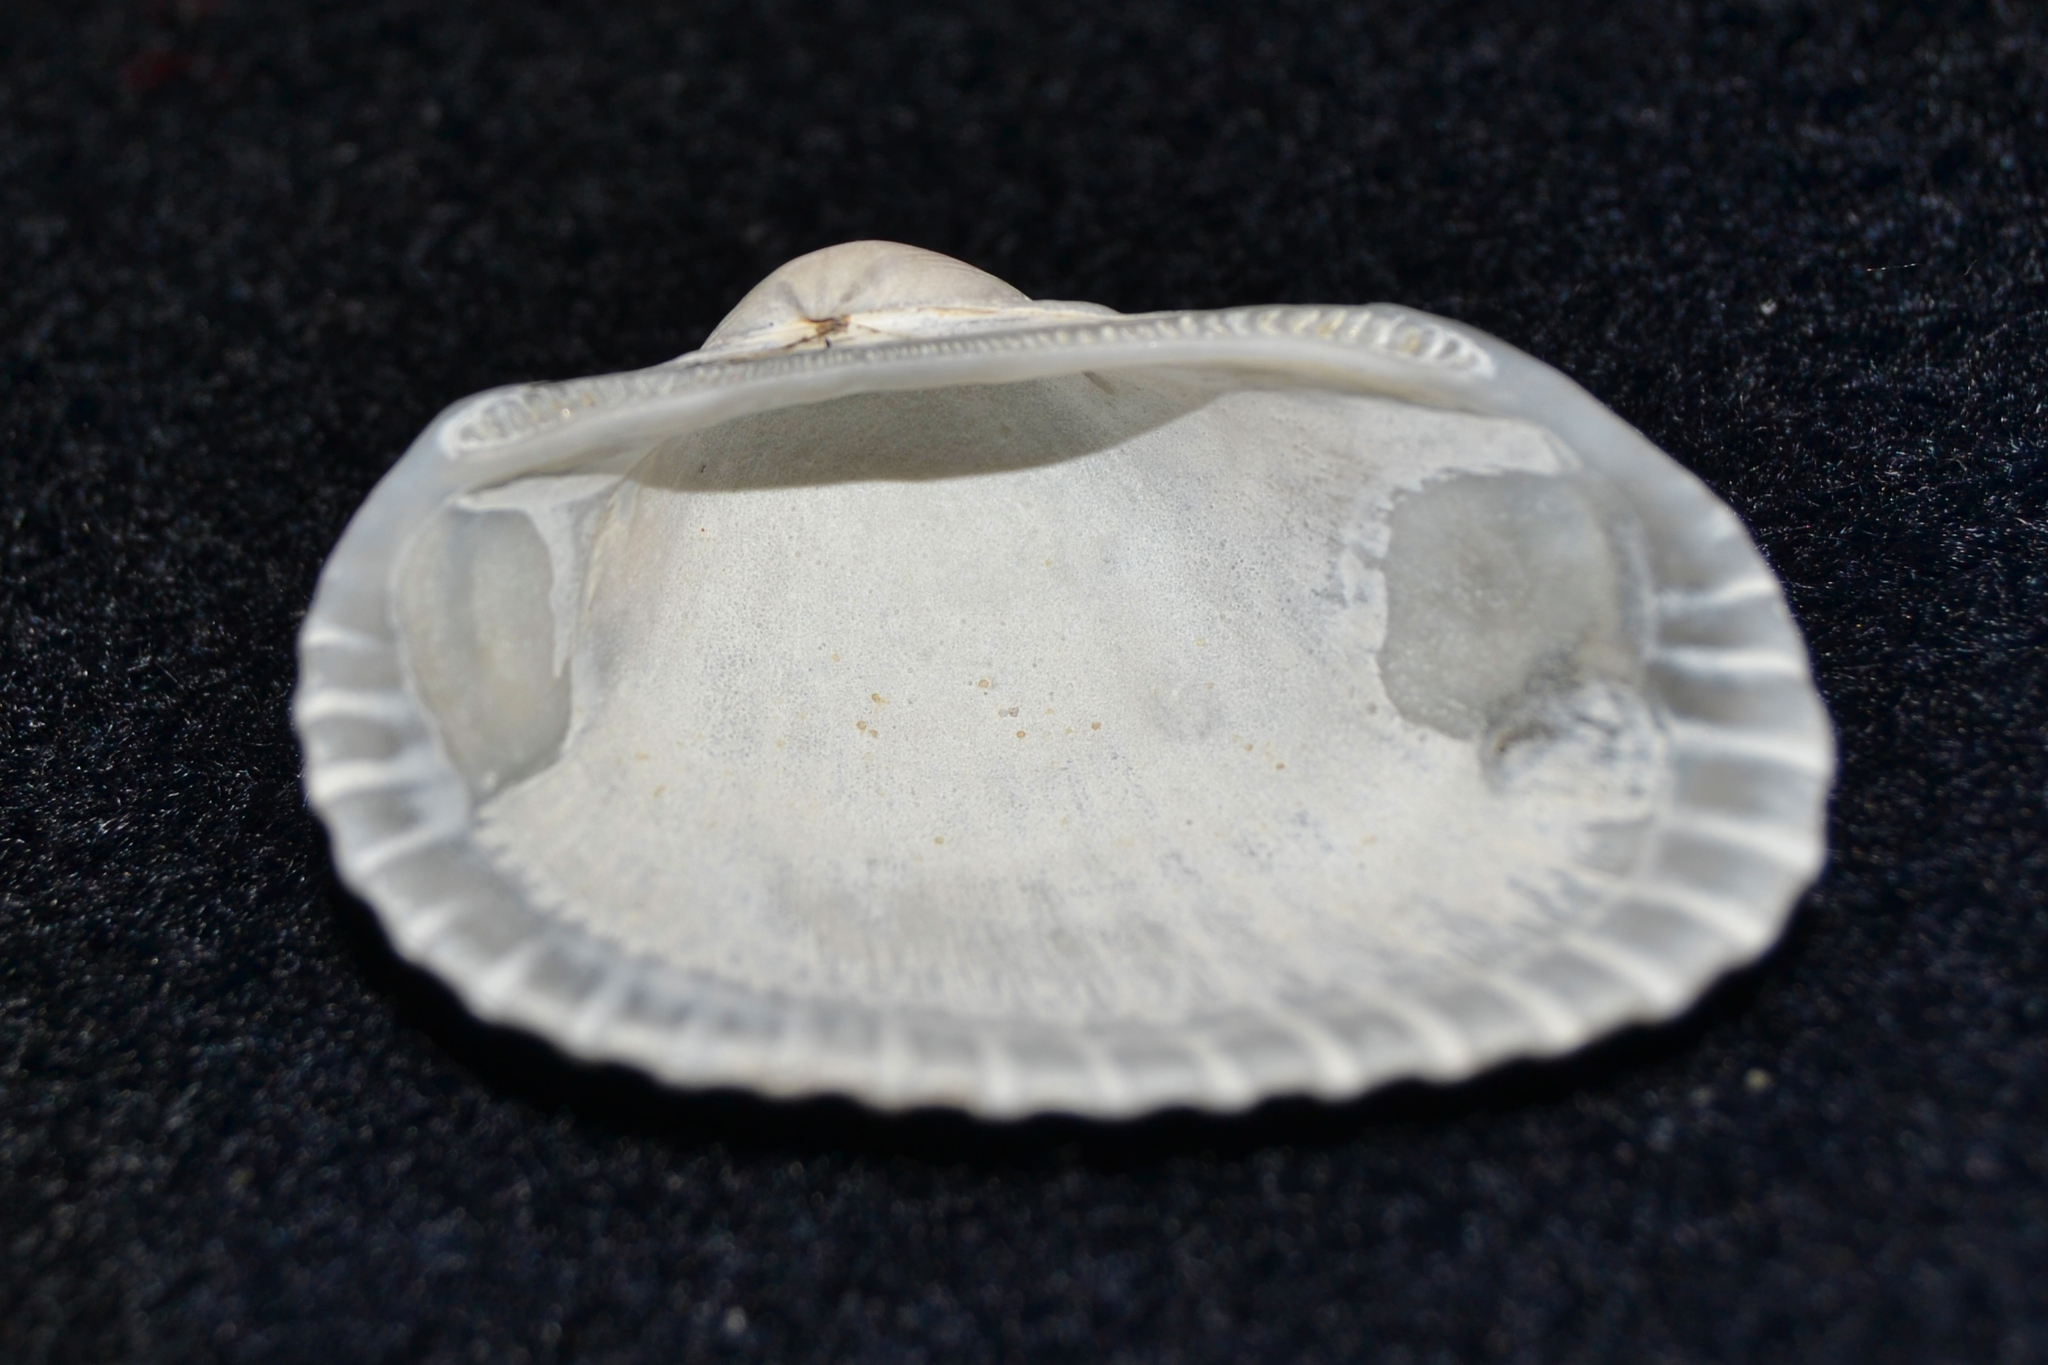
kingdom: Animalia
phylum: Mollusca
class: Bivalvia
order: Arcida
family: Arcidae
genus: Anadara
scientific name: Anadara transversa
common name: Transverse ark
